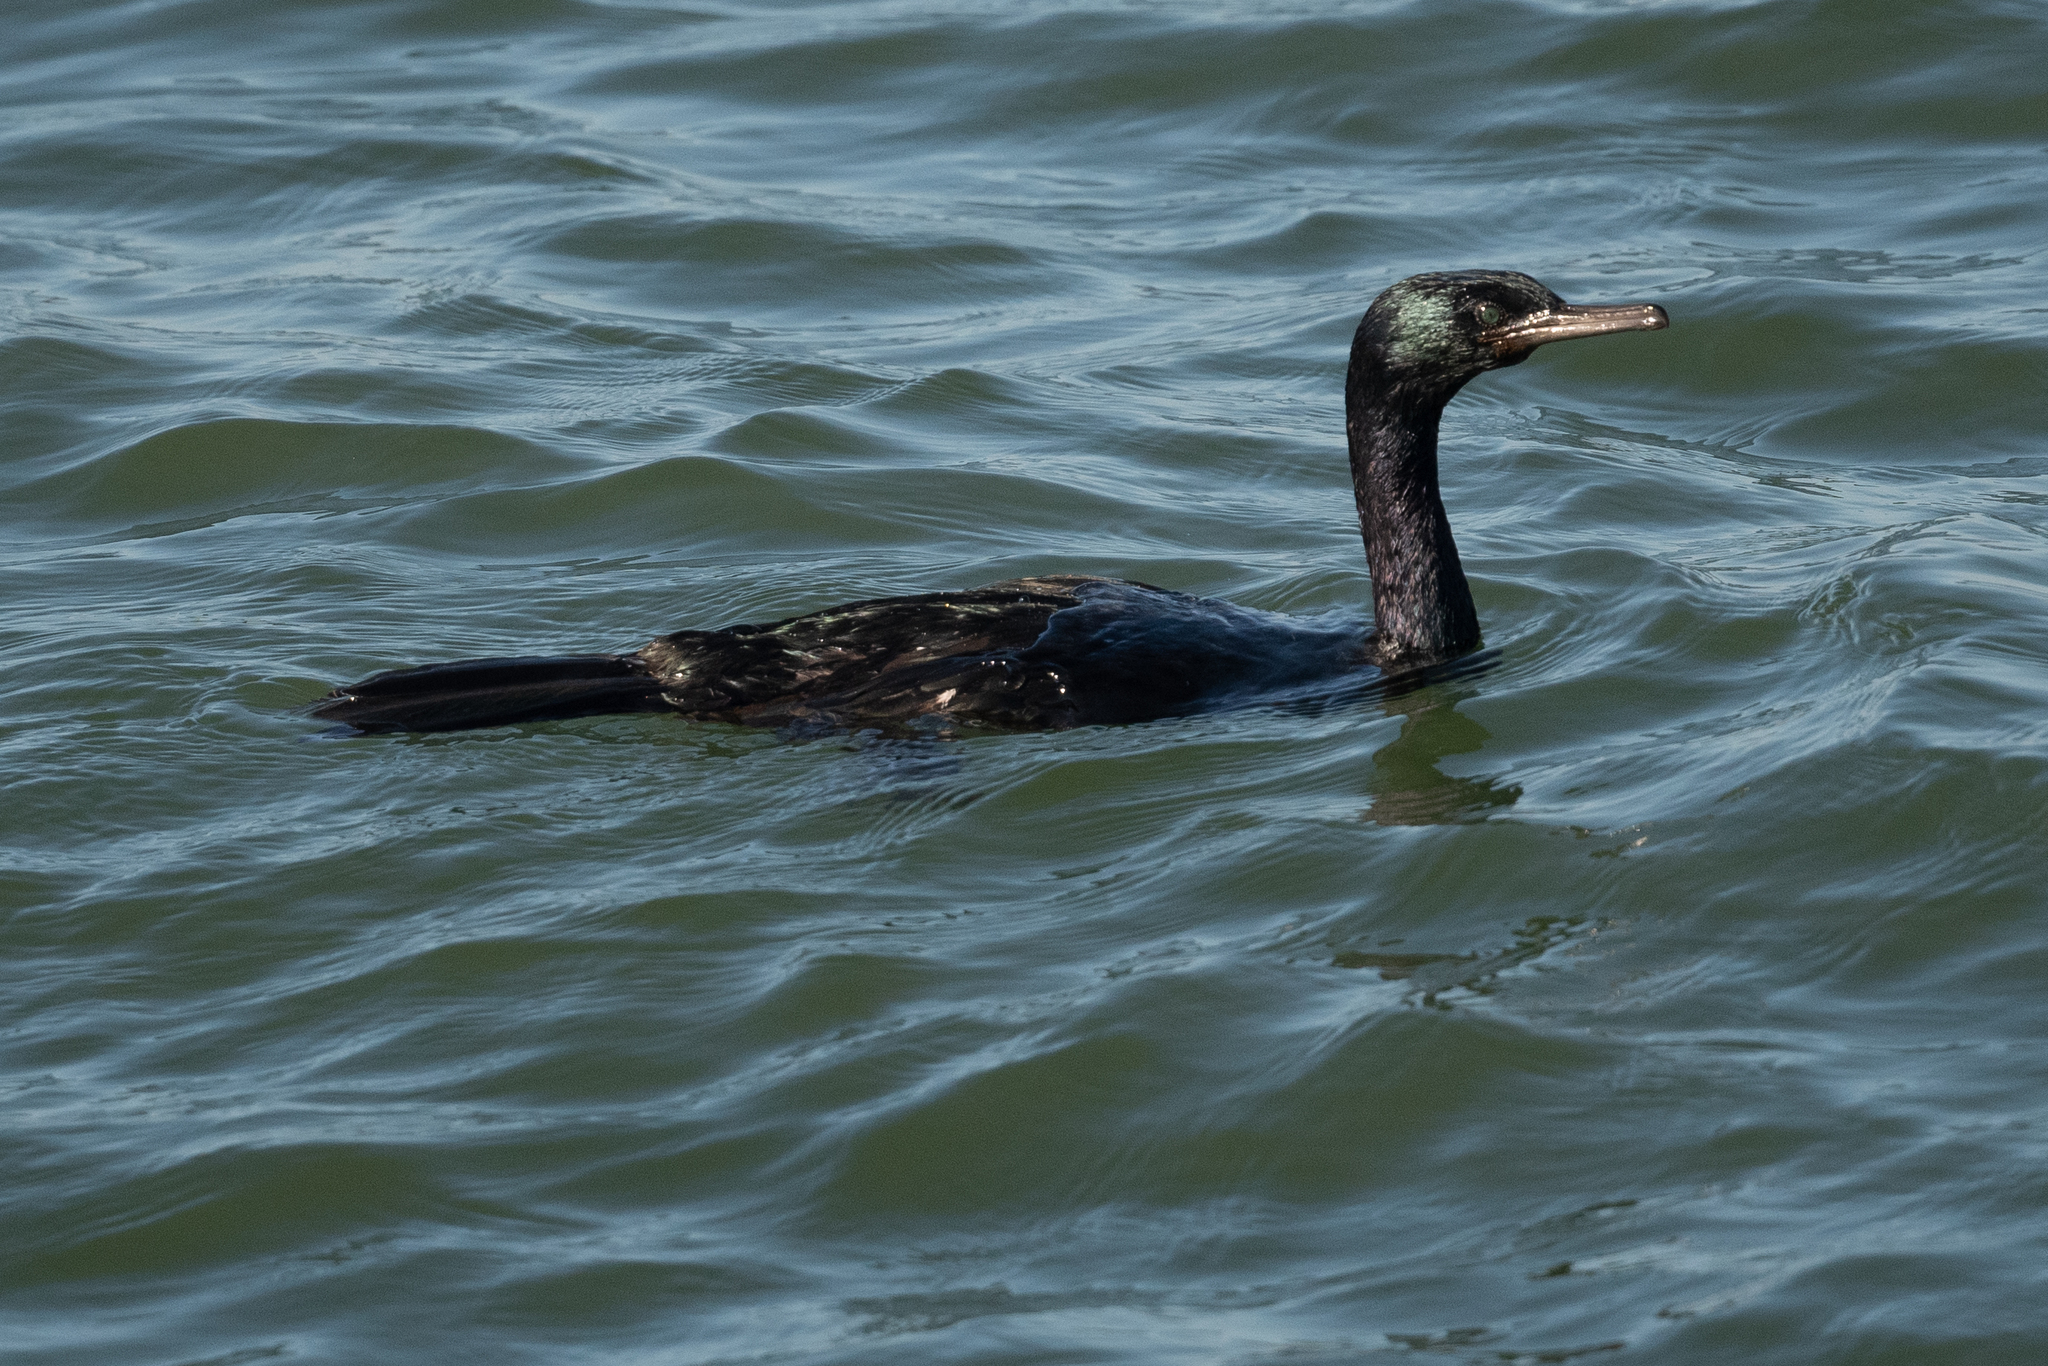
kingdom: Animalia
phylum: Chordata
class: Aves
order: Suliformes
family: Phalacrocoracidae
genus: Phalacrocorax
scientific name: Phalacrocorax pelagicus
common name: Pelagic cormorant
